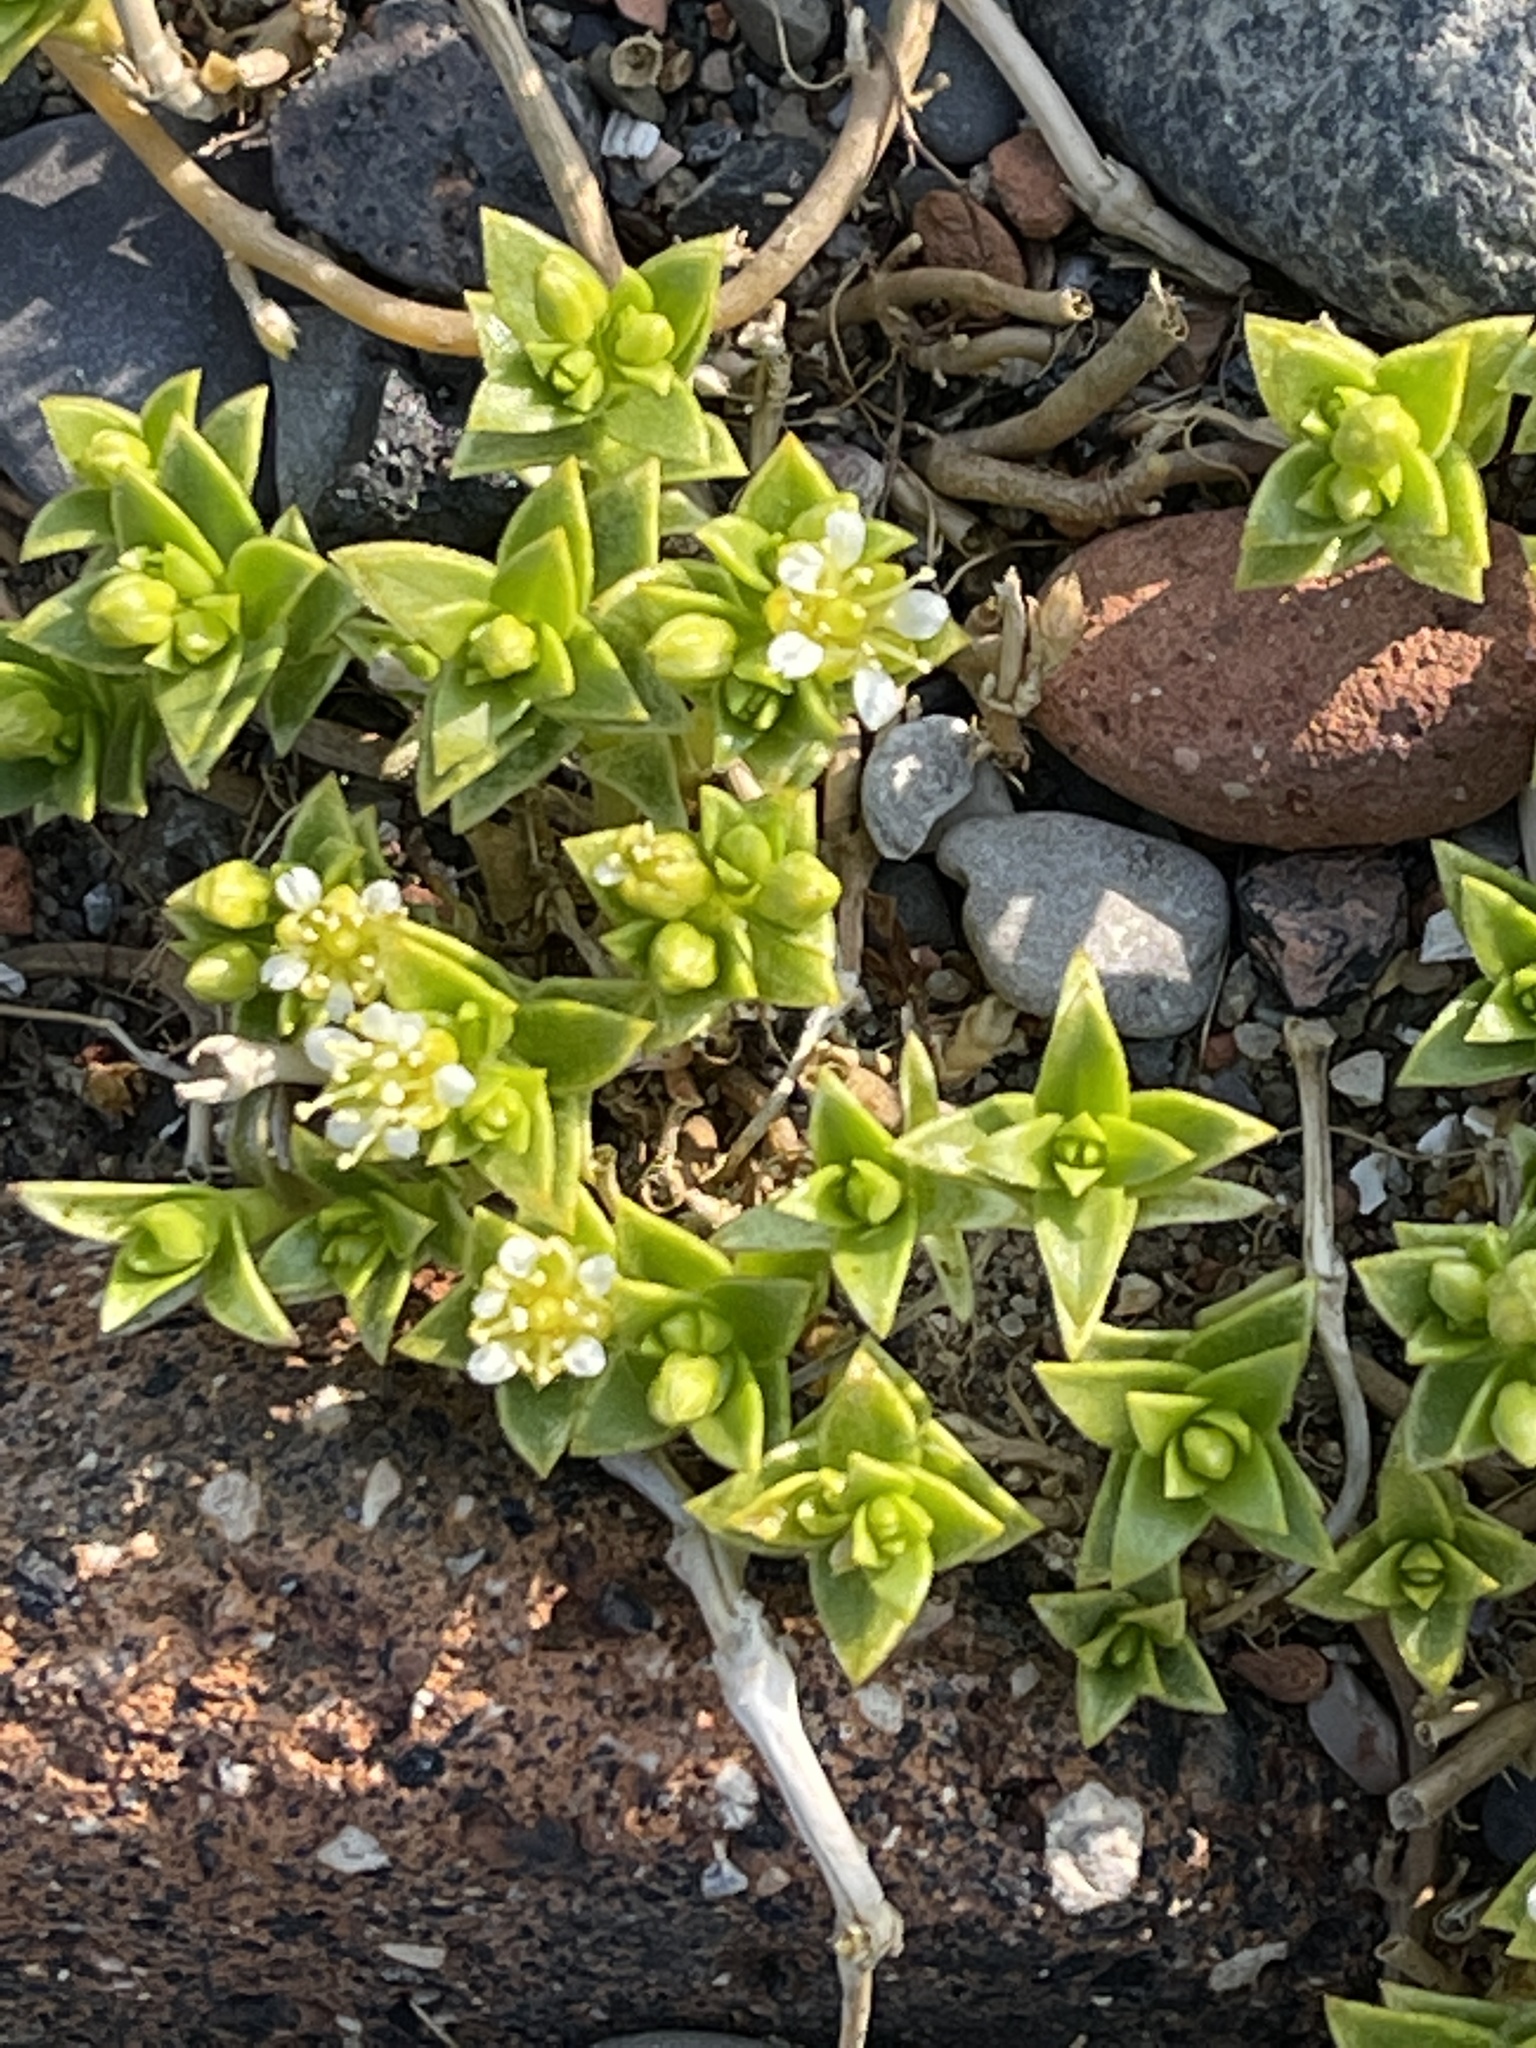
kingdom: Plantae
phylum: Tracheophyta
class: Magnoliopsida
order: Caryophyllales
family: Caryophyllaceae
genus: Honckenya
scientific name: Honckenya peploides
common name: Sea sandwort
